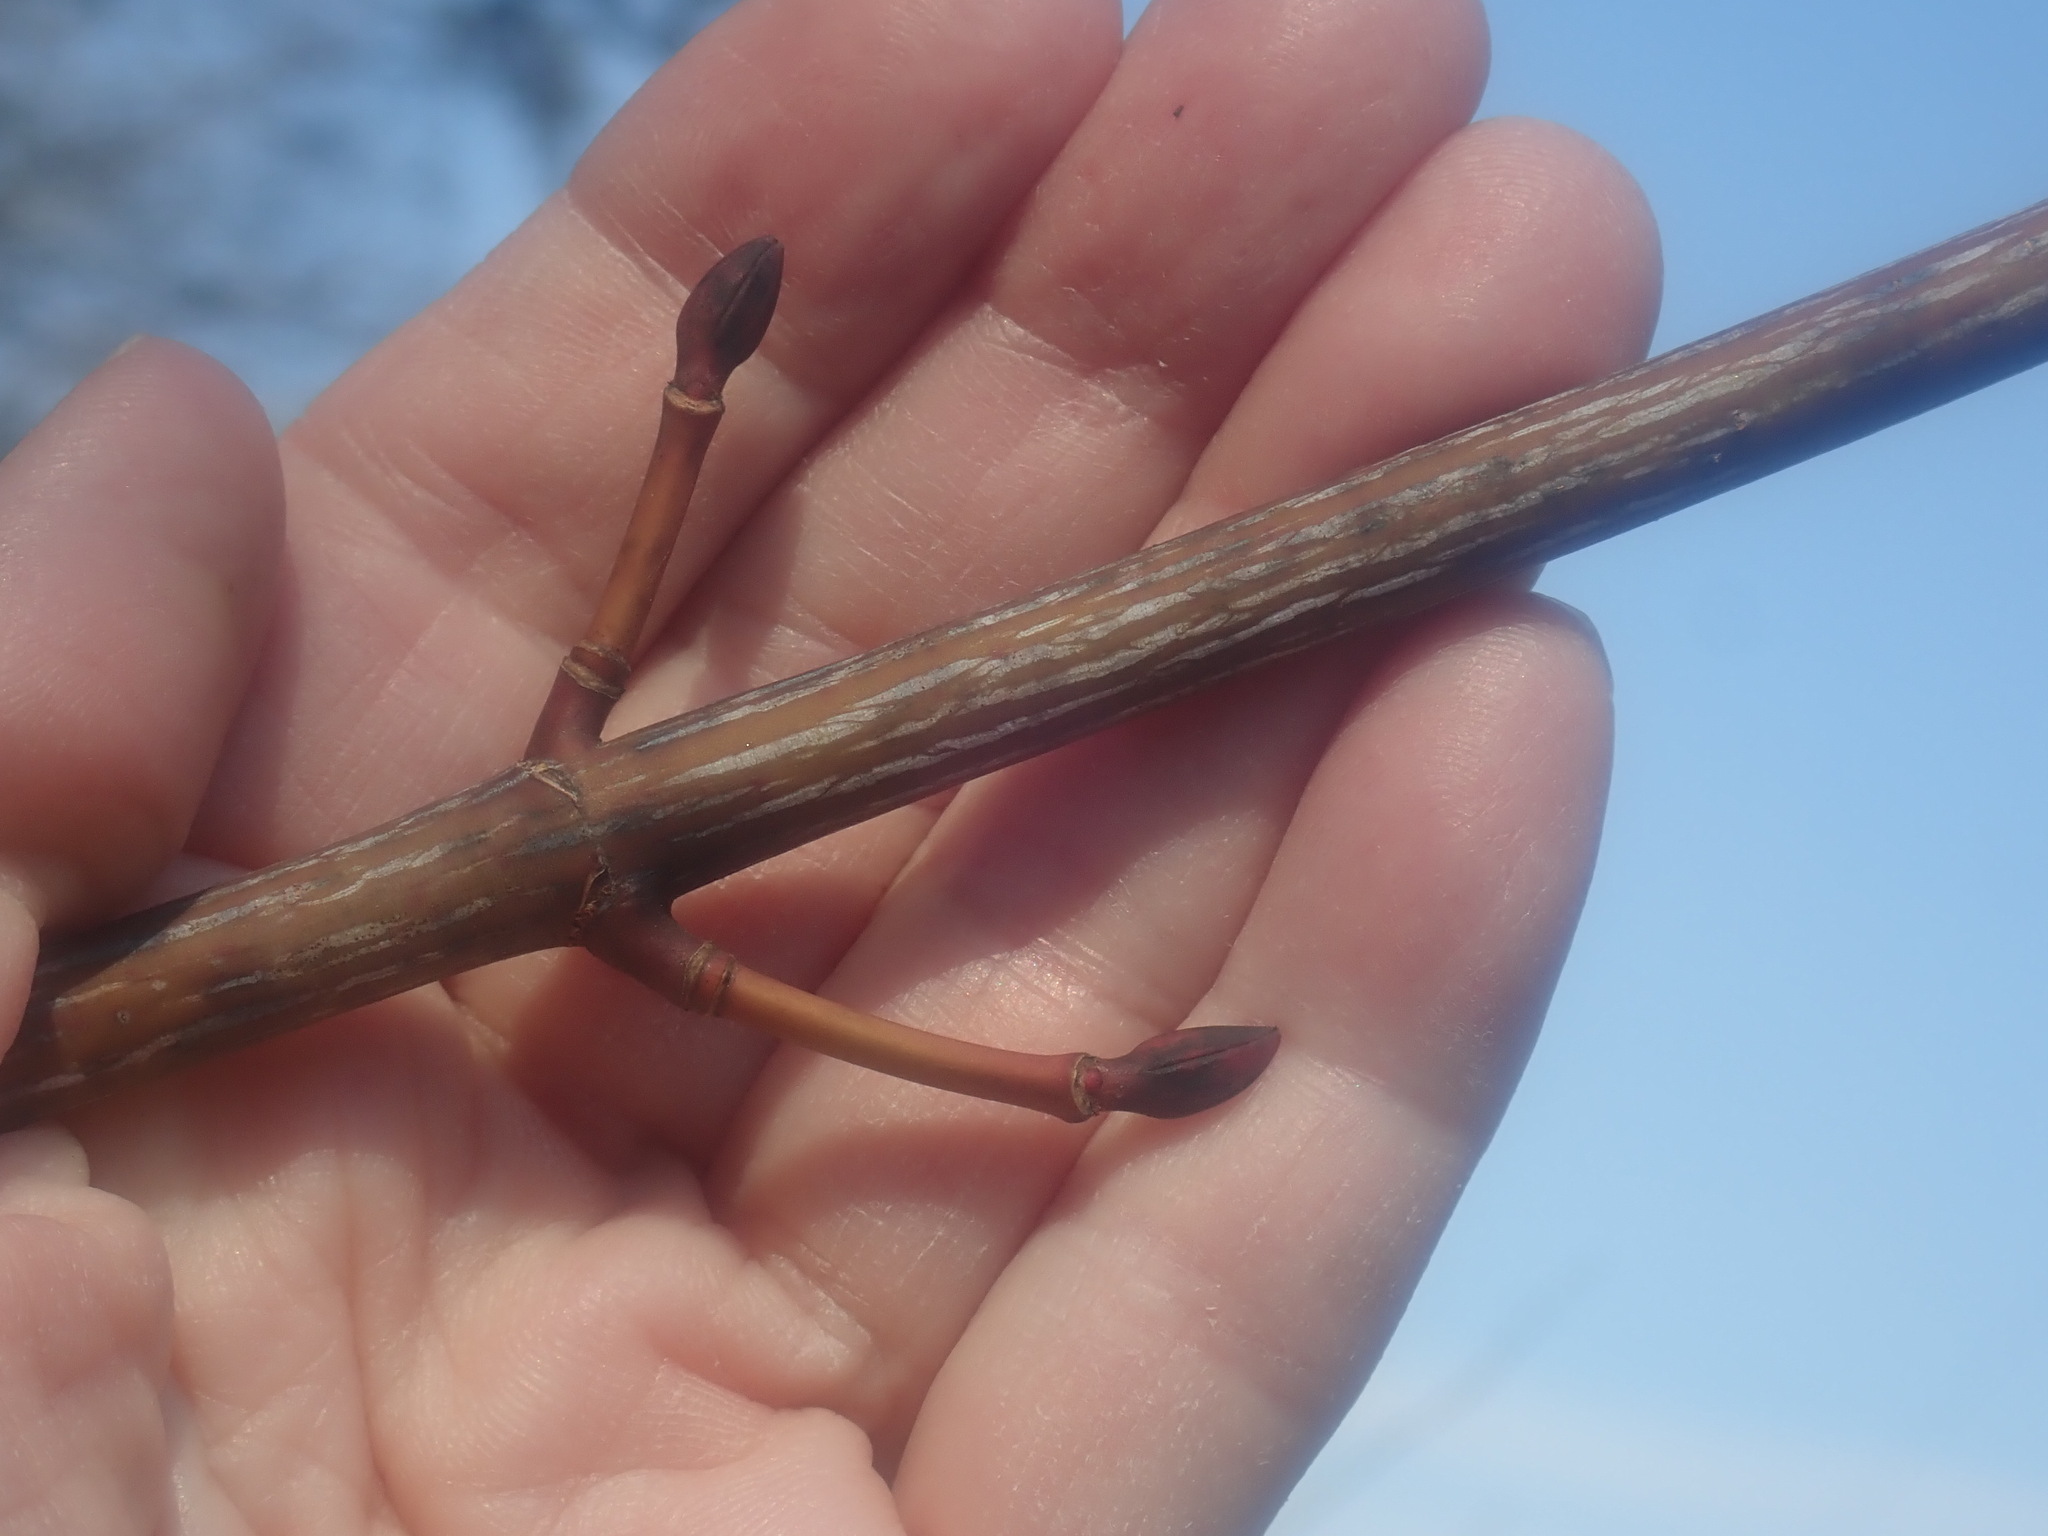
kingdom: Plantae
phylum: Tracheophyta
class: Magnoliopsida
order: Sapindales
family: Sapindaceae
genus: Acer
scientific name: Acer pensylvanicum
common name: Moosewood
